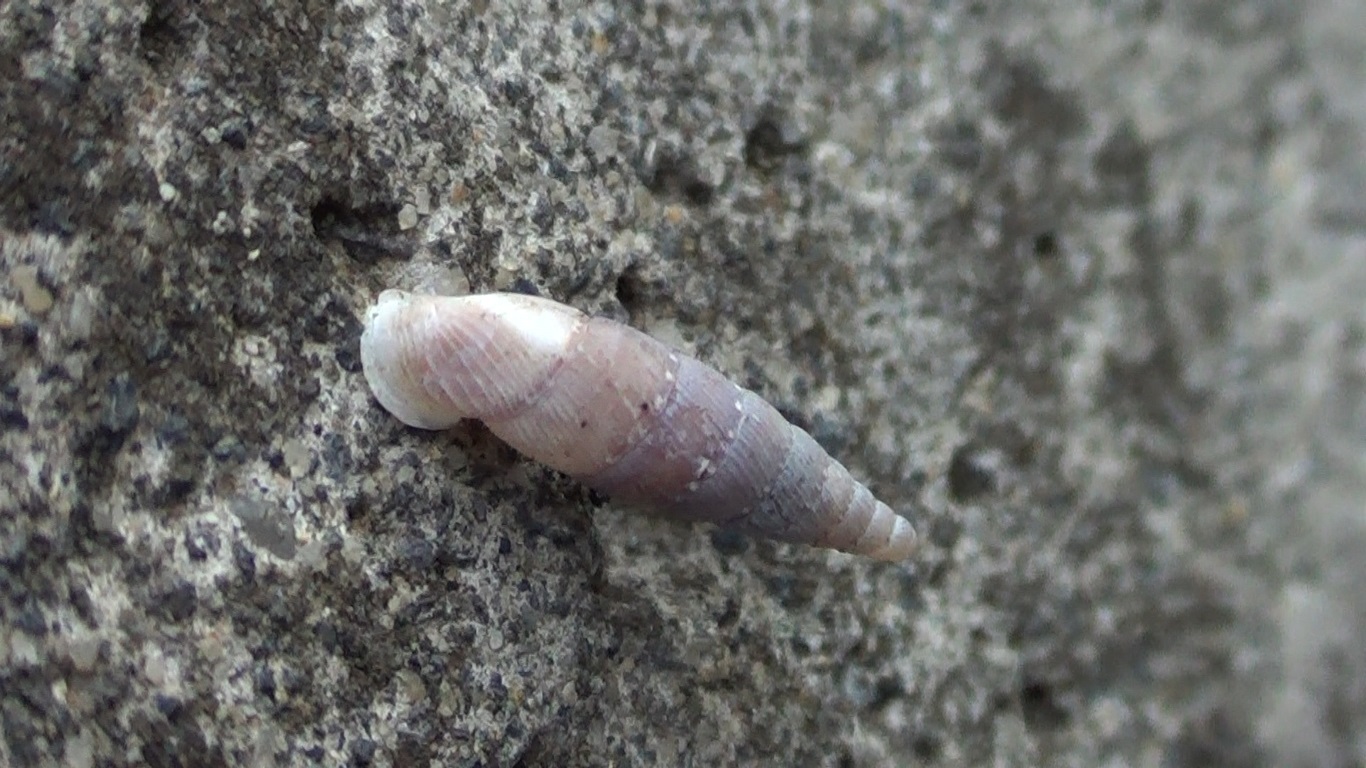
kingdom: Animalia
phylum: Mollusca
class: Gastropoda
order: Stylommatophora
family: Clausiliidae
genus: Papillifera
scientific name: Papillifera papillaris
